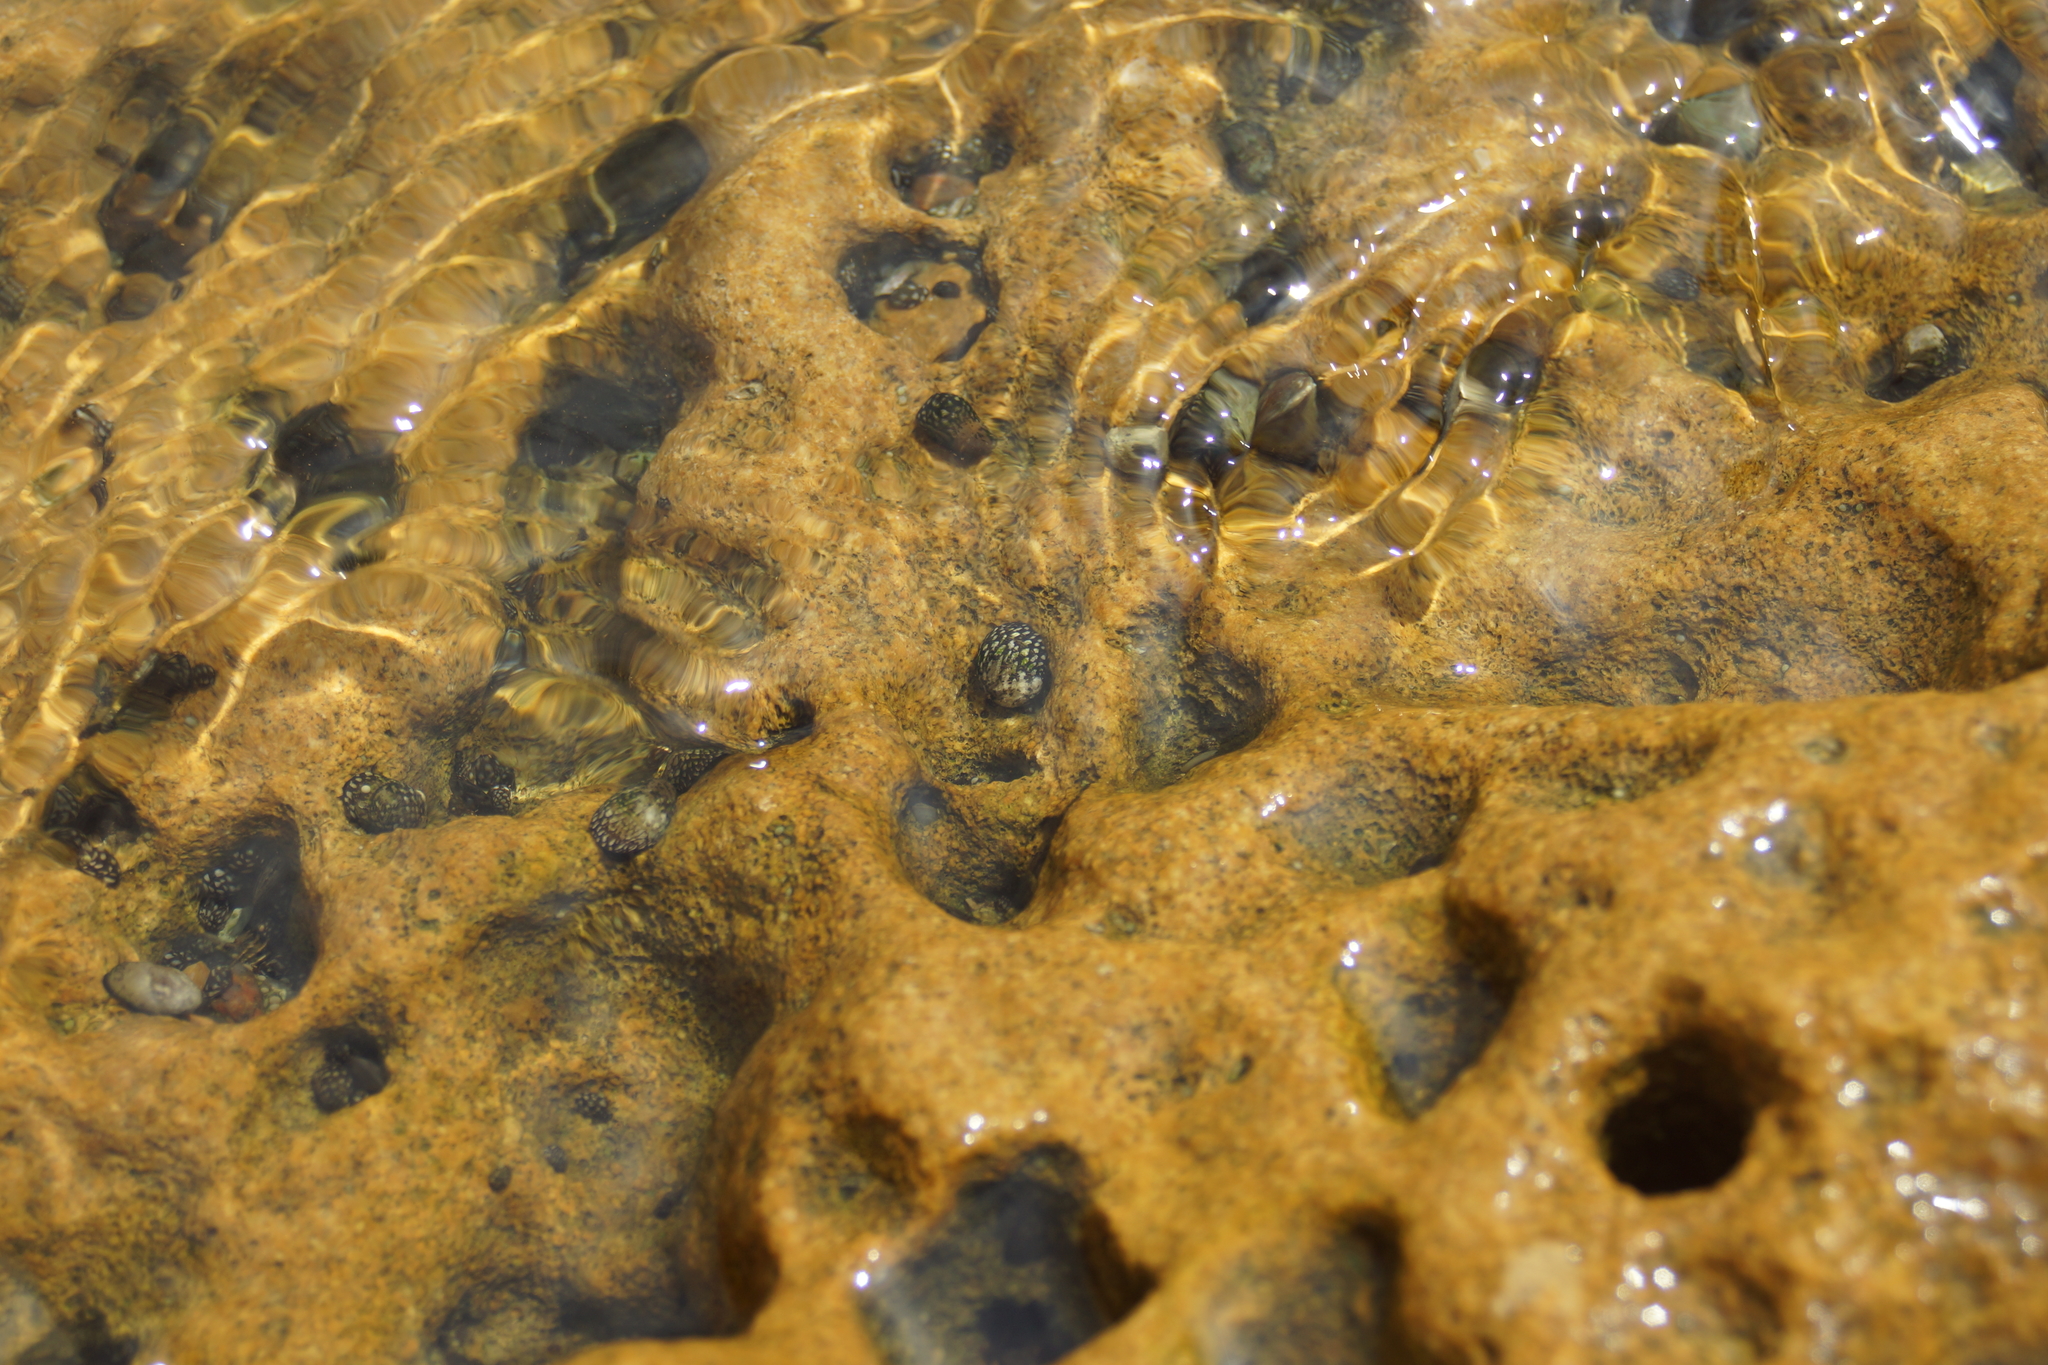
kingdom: Animalia
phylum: Mollusca
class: Gastropoda
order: Cycloneritida
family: Neritidae
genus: Theodoxus
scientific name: Theodoxus fluviatilis
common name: River nerite
